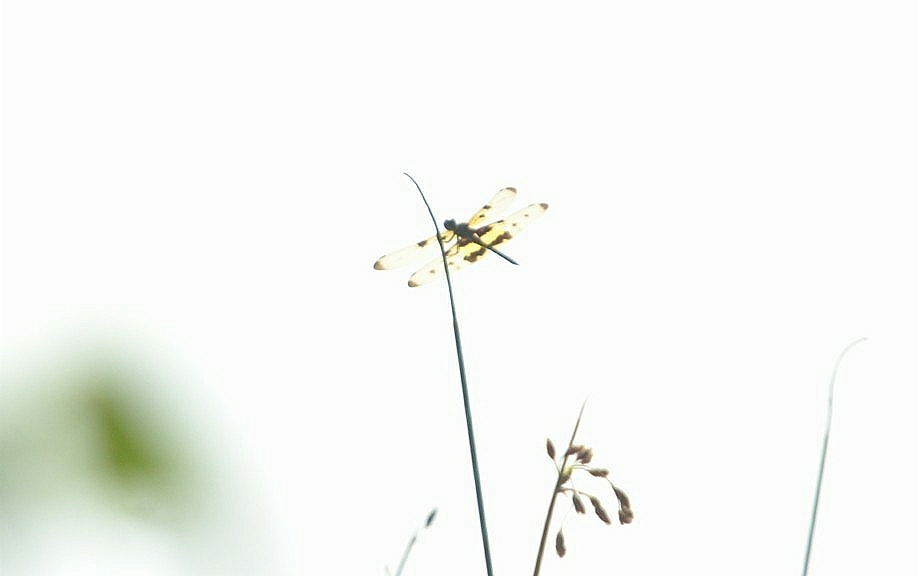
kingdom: Animalia
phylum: Arthropoda
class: Insecta
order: Odonata
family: Libellulidae
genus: Rhyothemis
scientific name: Rhyothemis variegata
